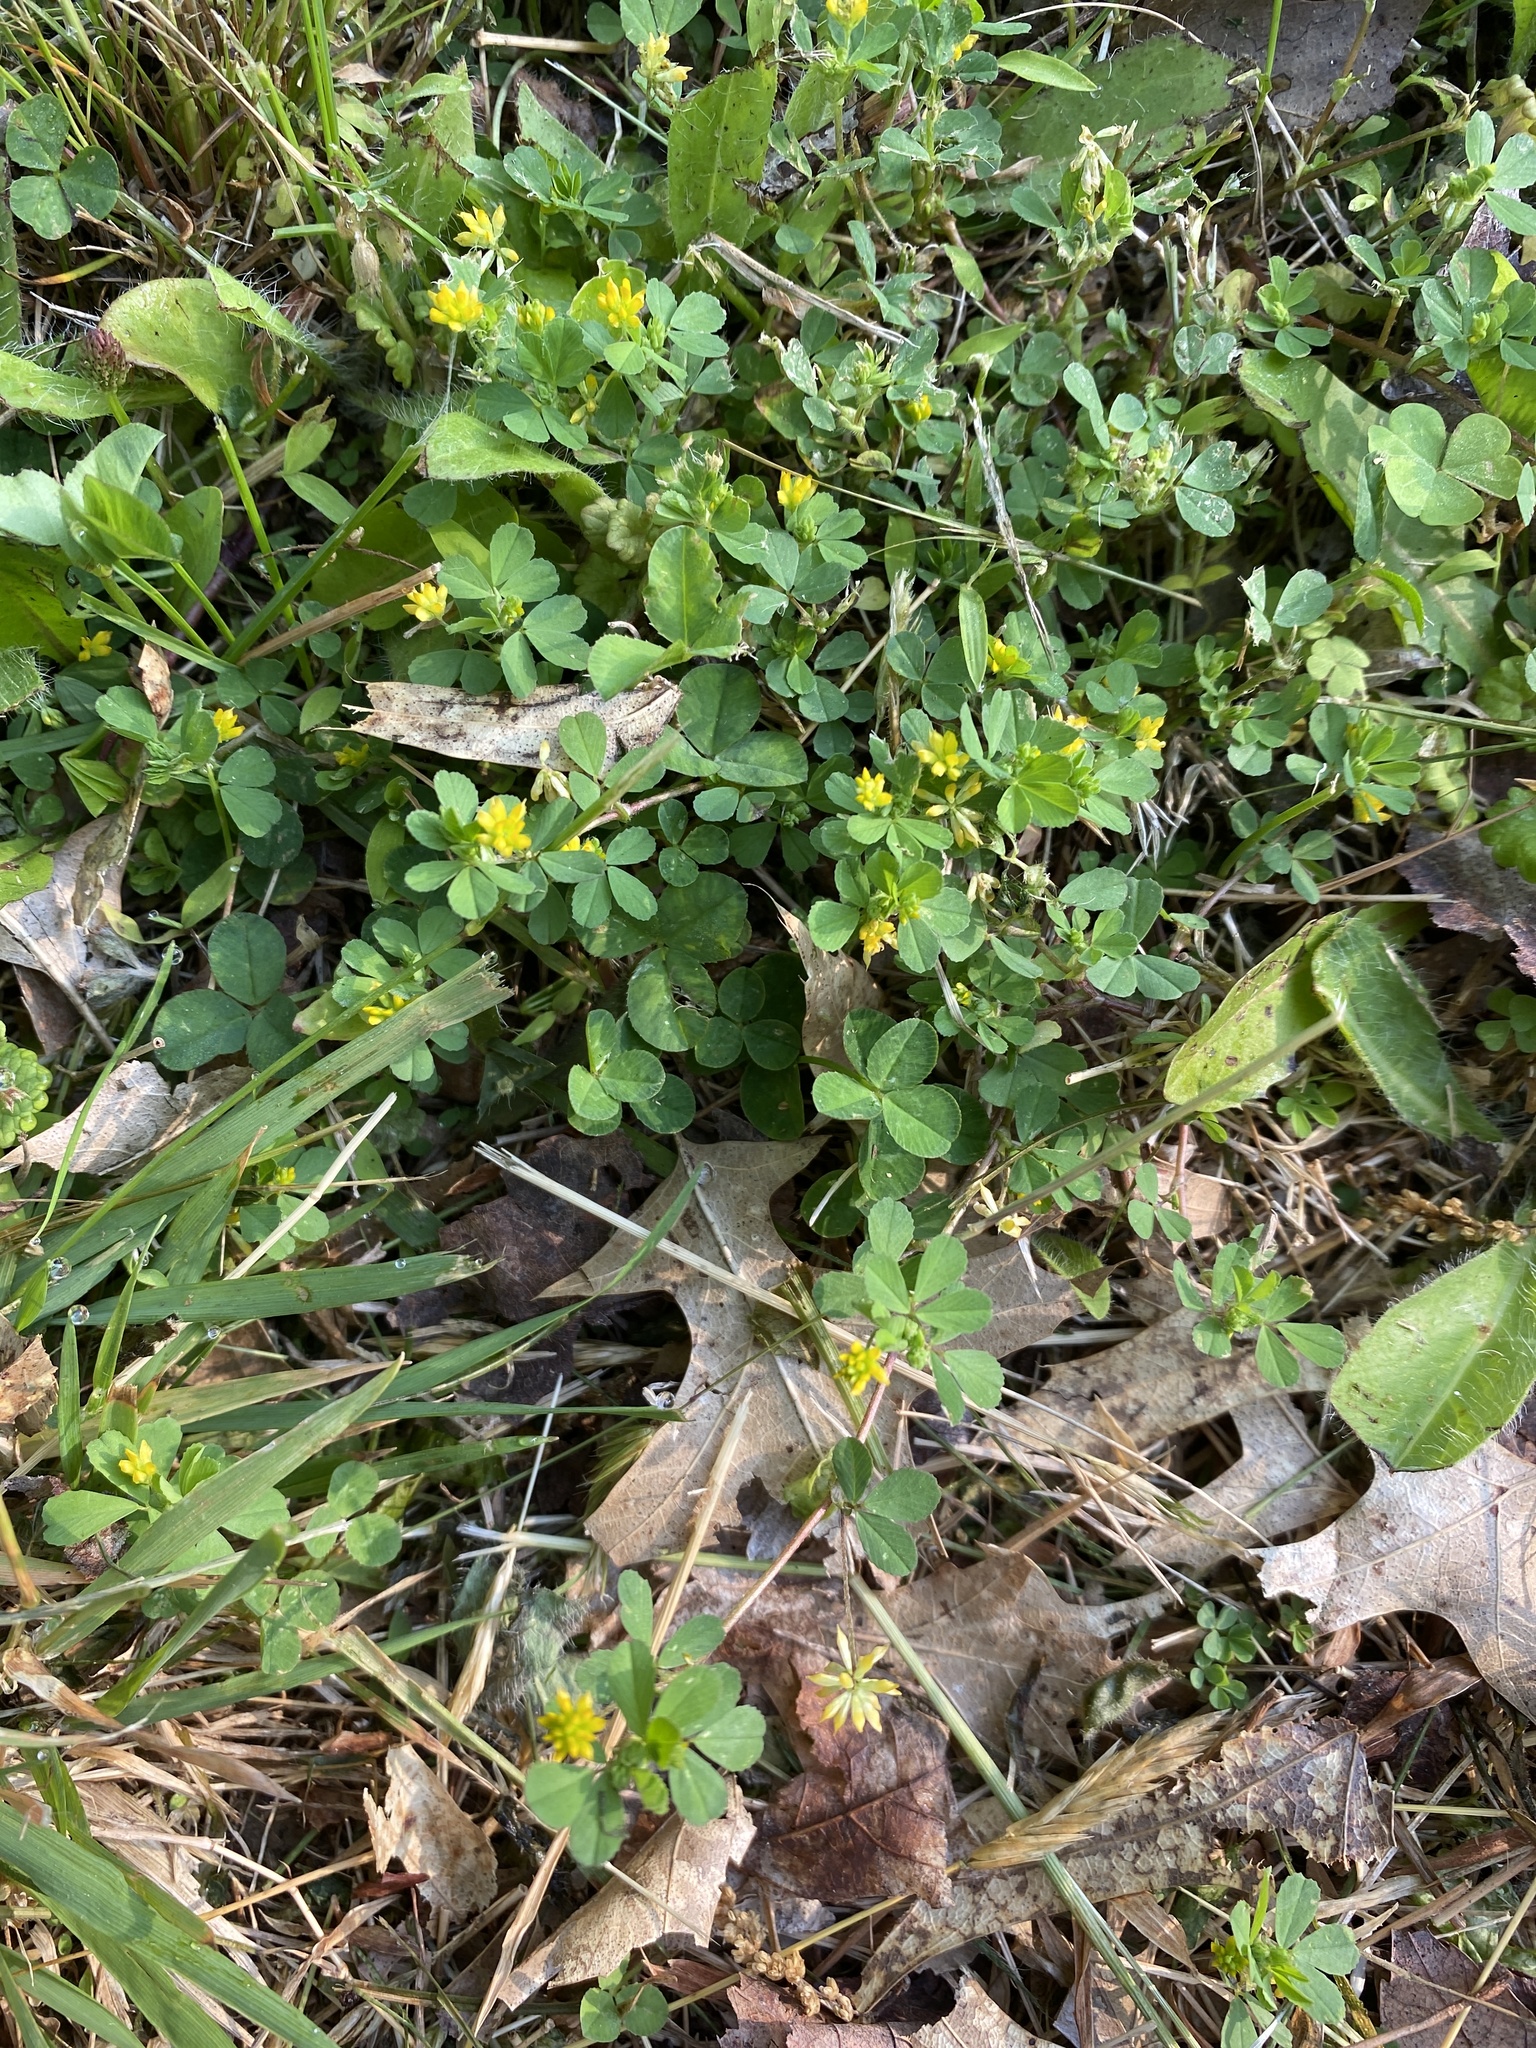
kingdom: Plantae
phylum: Tracheophyta
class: Magnoliopsida
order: Fabales
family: Fabaceae
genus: Trifolium
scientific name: Trifolium dubium
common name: Suckling clover
